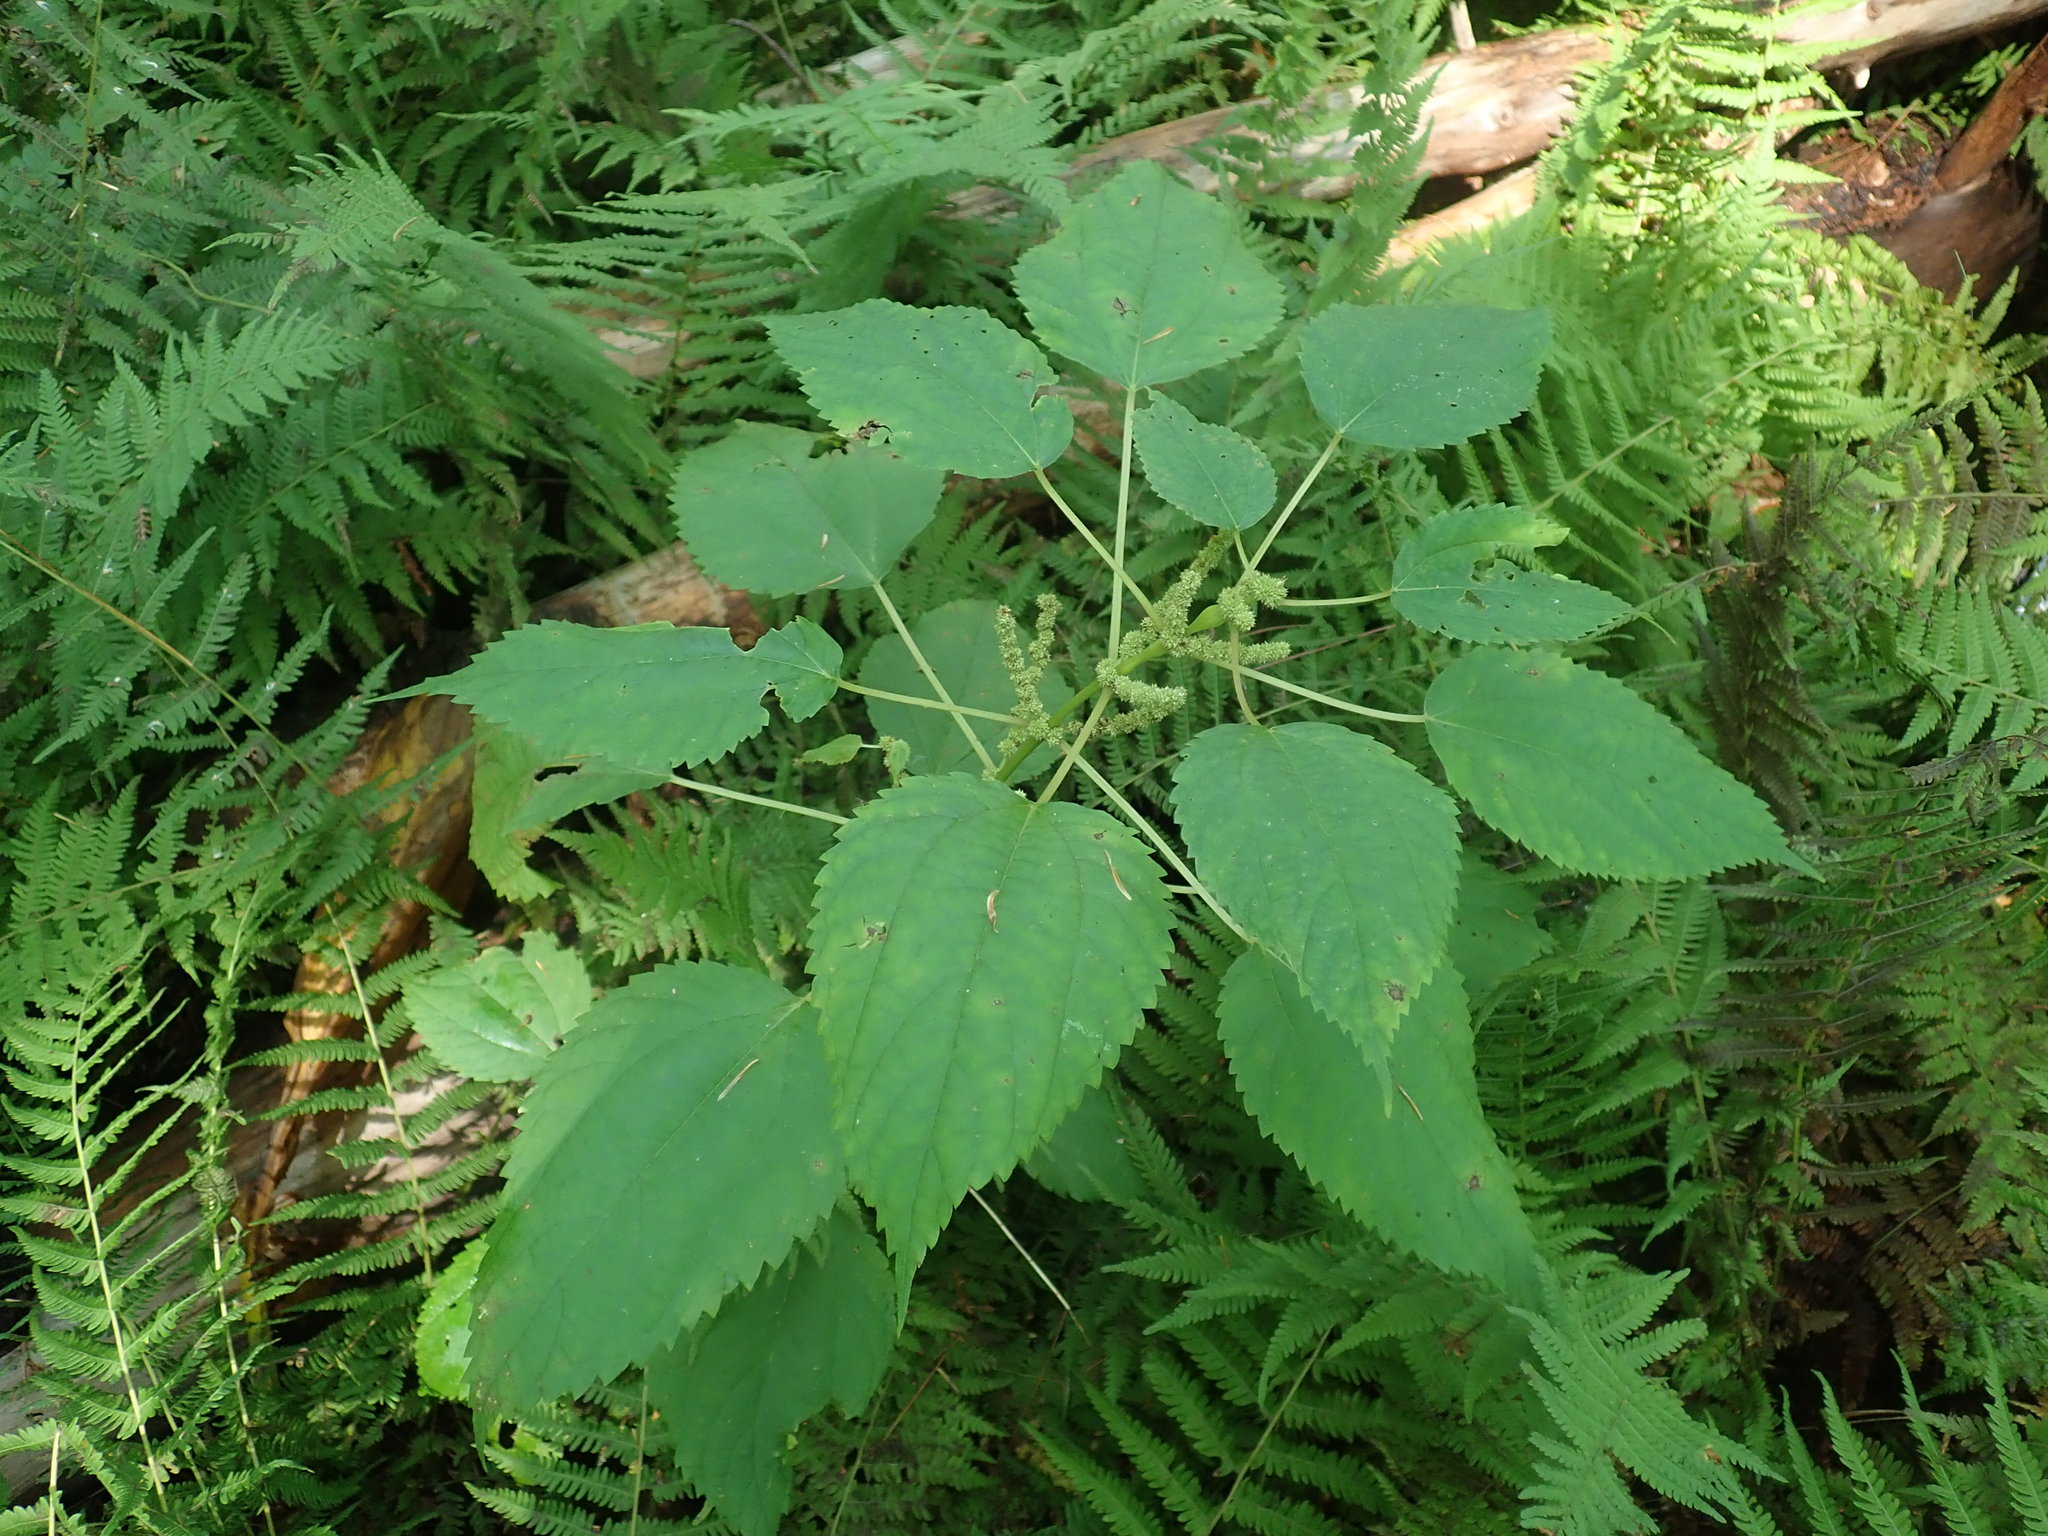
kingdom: Plantae
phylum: Tracheophyta
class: Magnoliopsida
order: Rosales
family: Urticaceae
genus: Boehmeria
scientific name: Boehmeria cylindrica
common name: Bog-hemp
